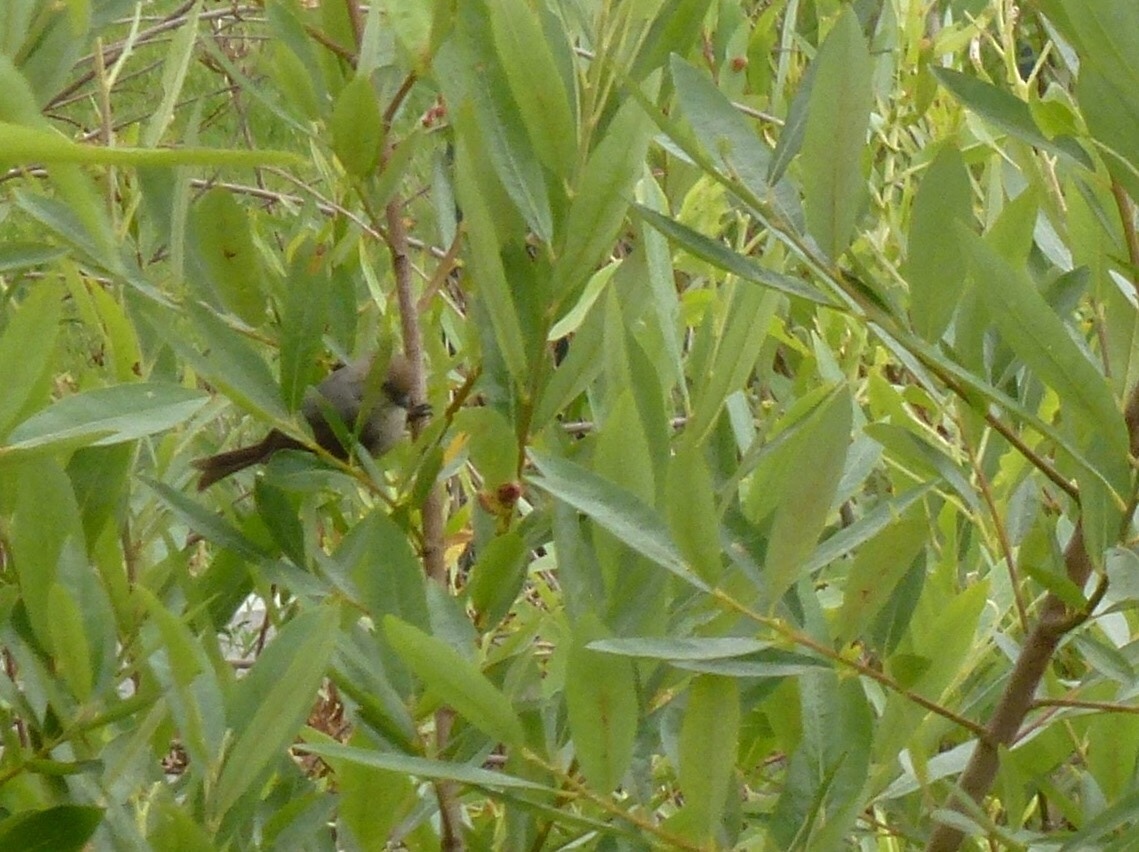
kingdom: Animalia
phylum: Chordata
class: Aves
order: Passeriformes
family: Aegithalidae
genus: Psaltriparus
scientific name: Psaltriparus minimus
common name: American bushtit
